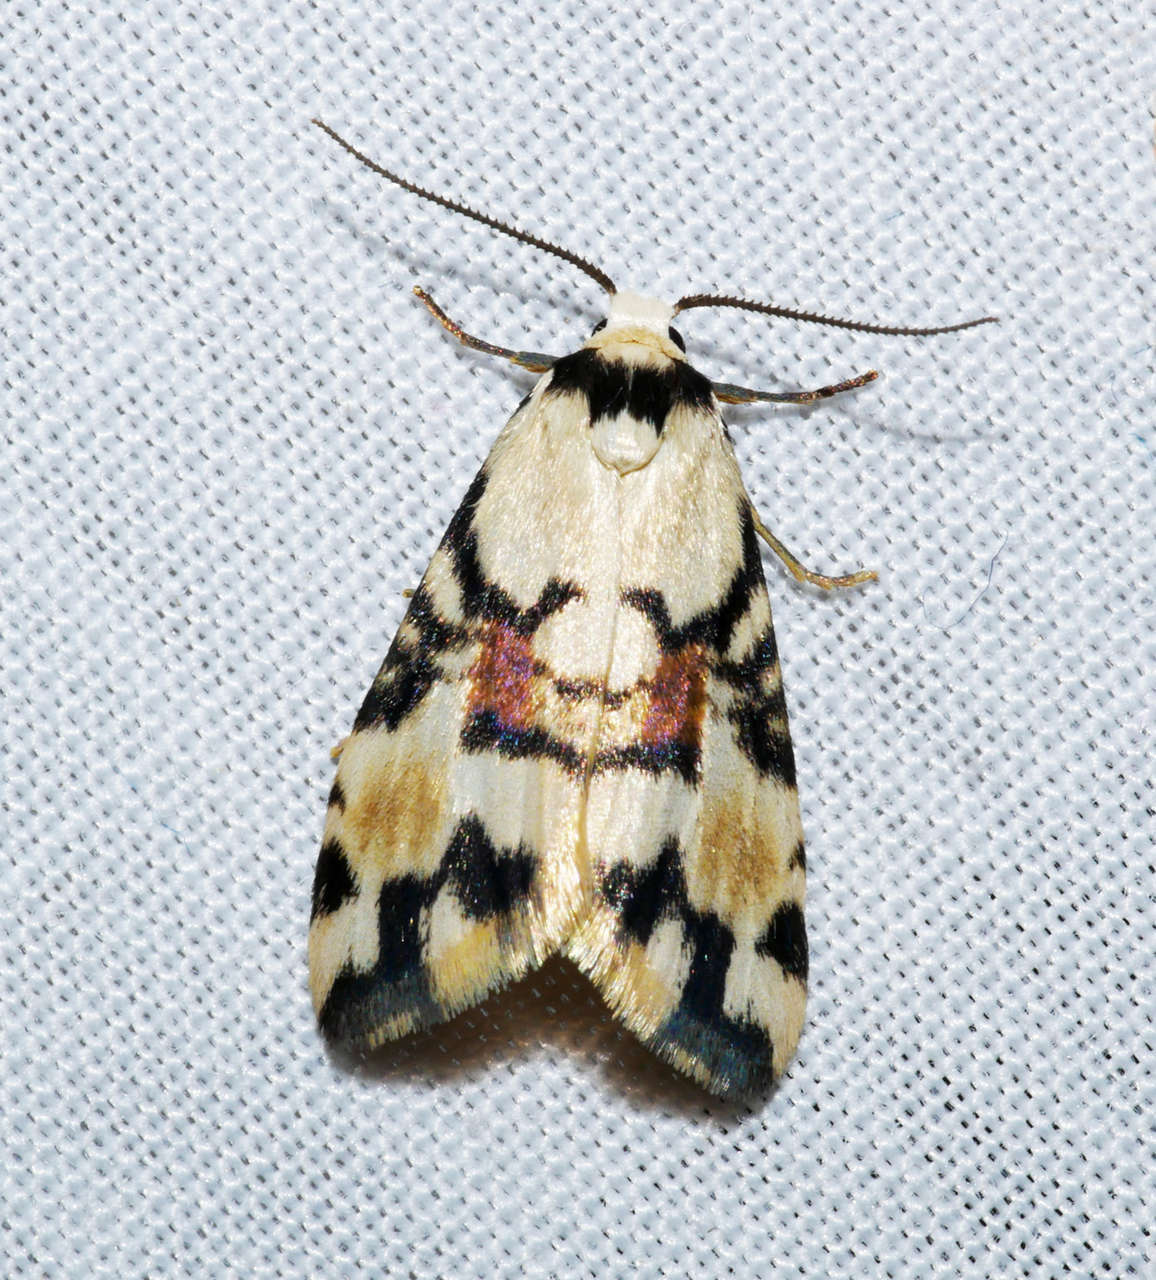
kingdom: Animalia
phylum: Arthropoda
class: Insecta
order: Lepidoptera
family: Erebidae
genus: Thallarcha
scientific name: Thallarcha oblita
